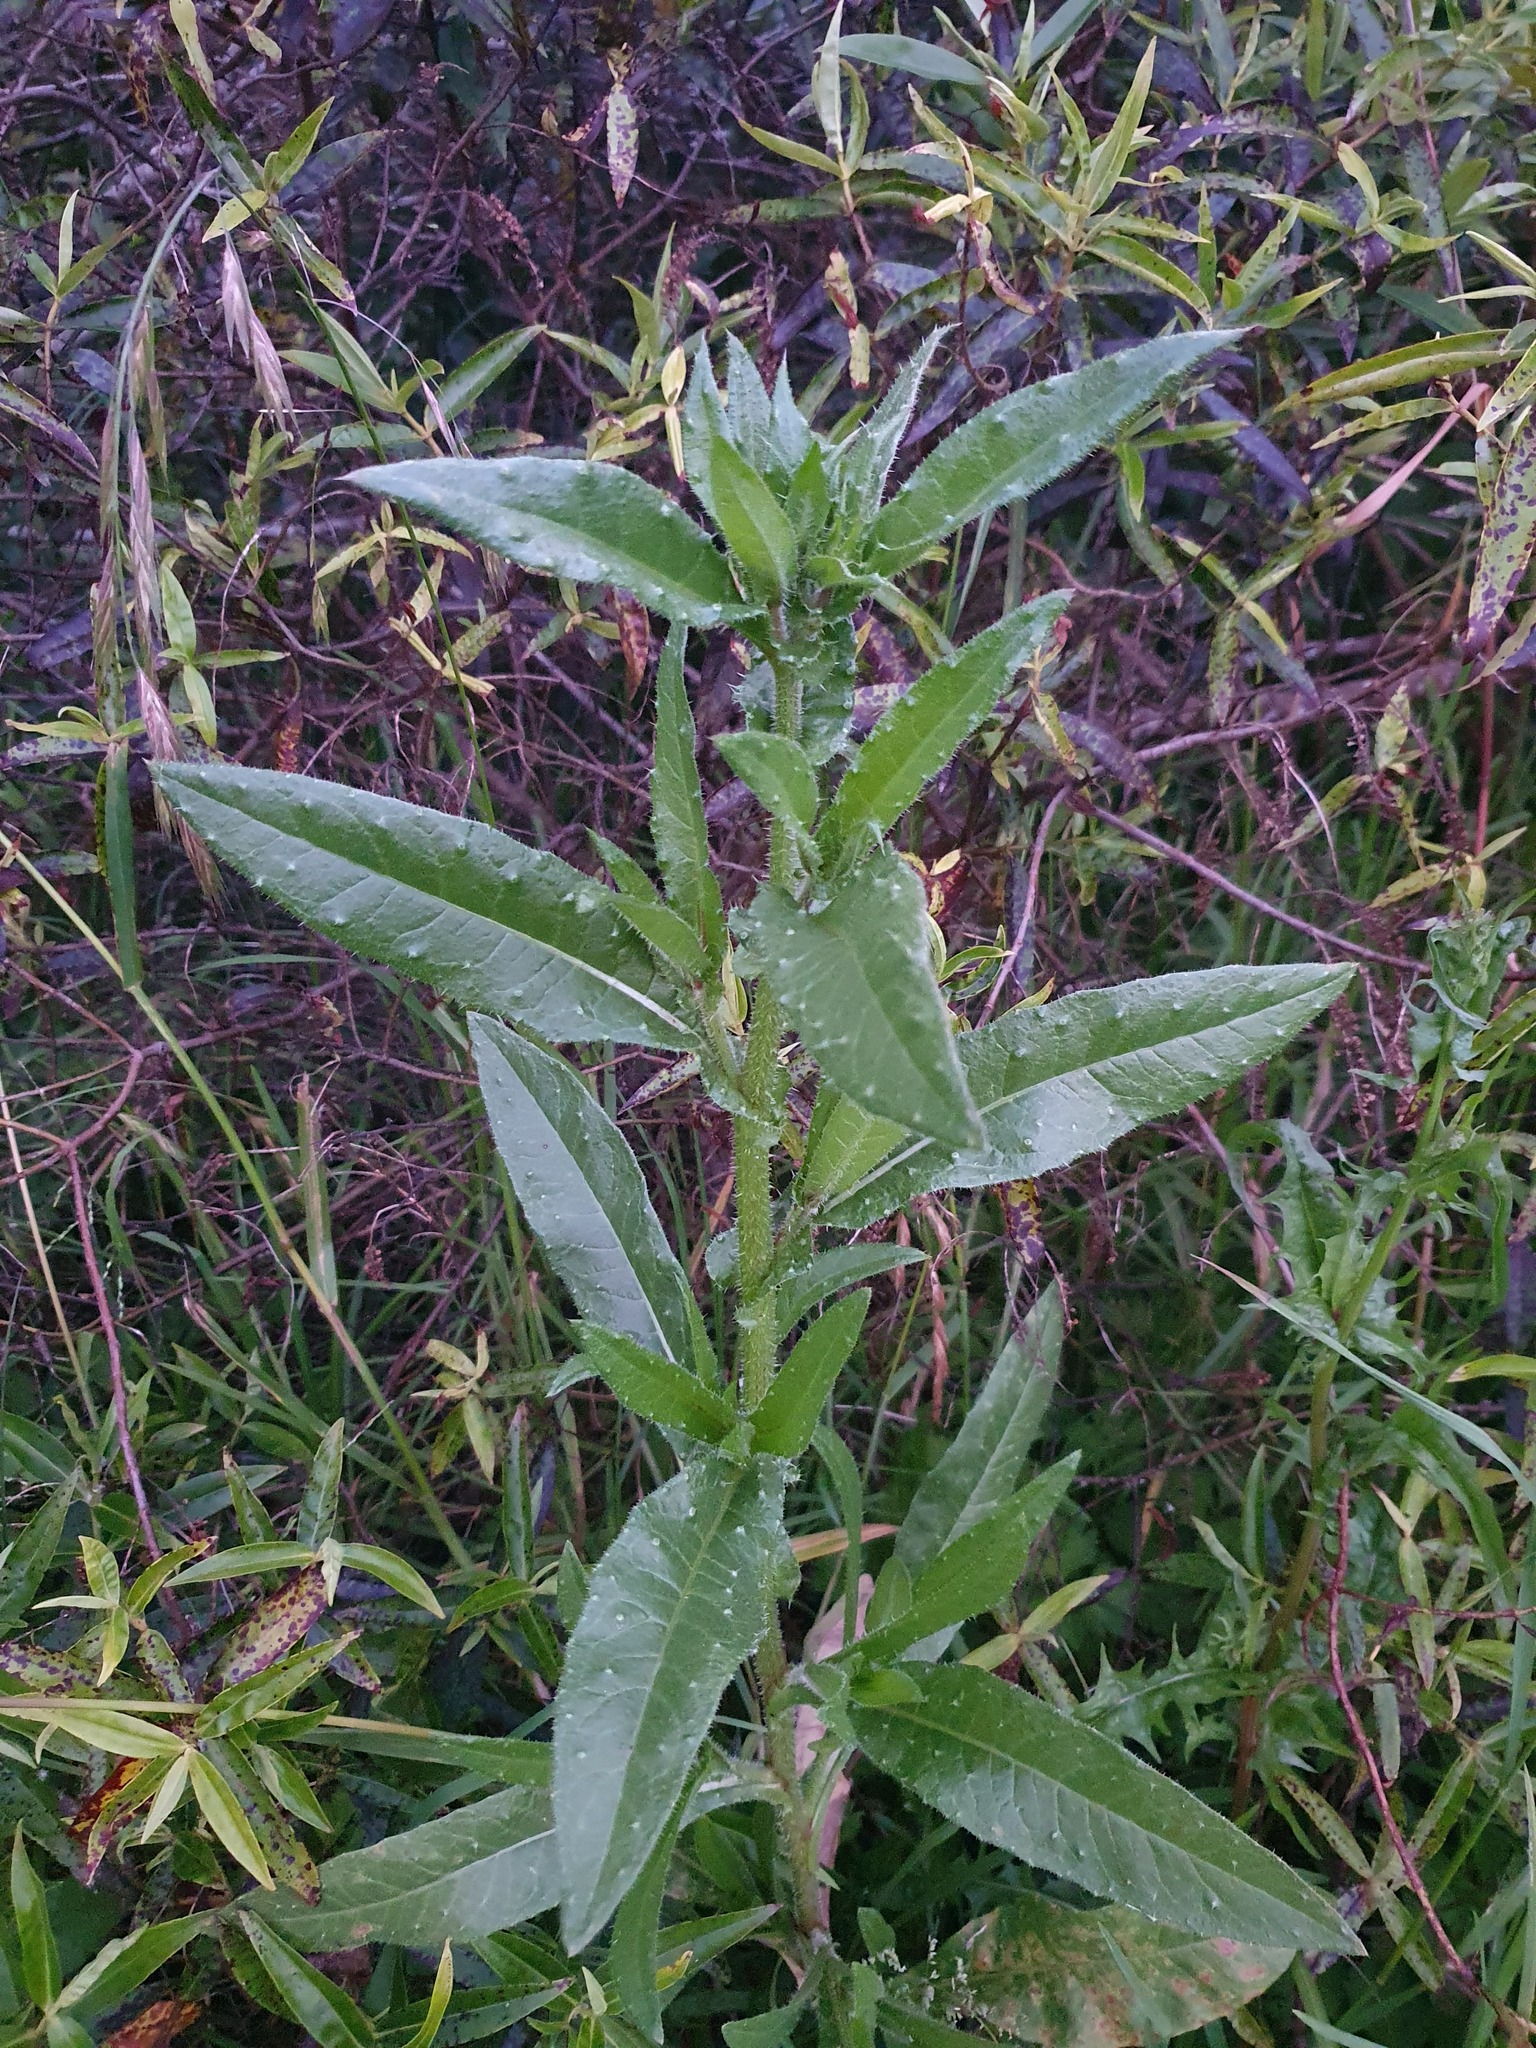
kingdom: Plantae
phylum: Tracheophyta
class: Magnoliopsida
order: Asterales
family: Asteraceae
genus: Helminthotheca
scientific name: Helminthotheca echioides
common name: Ox-tongue
